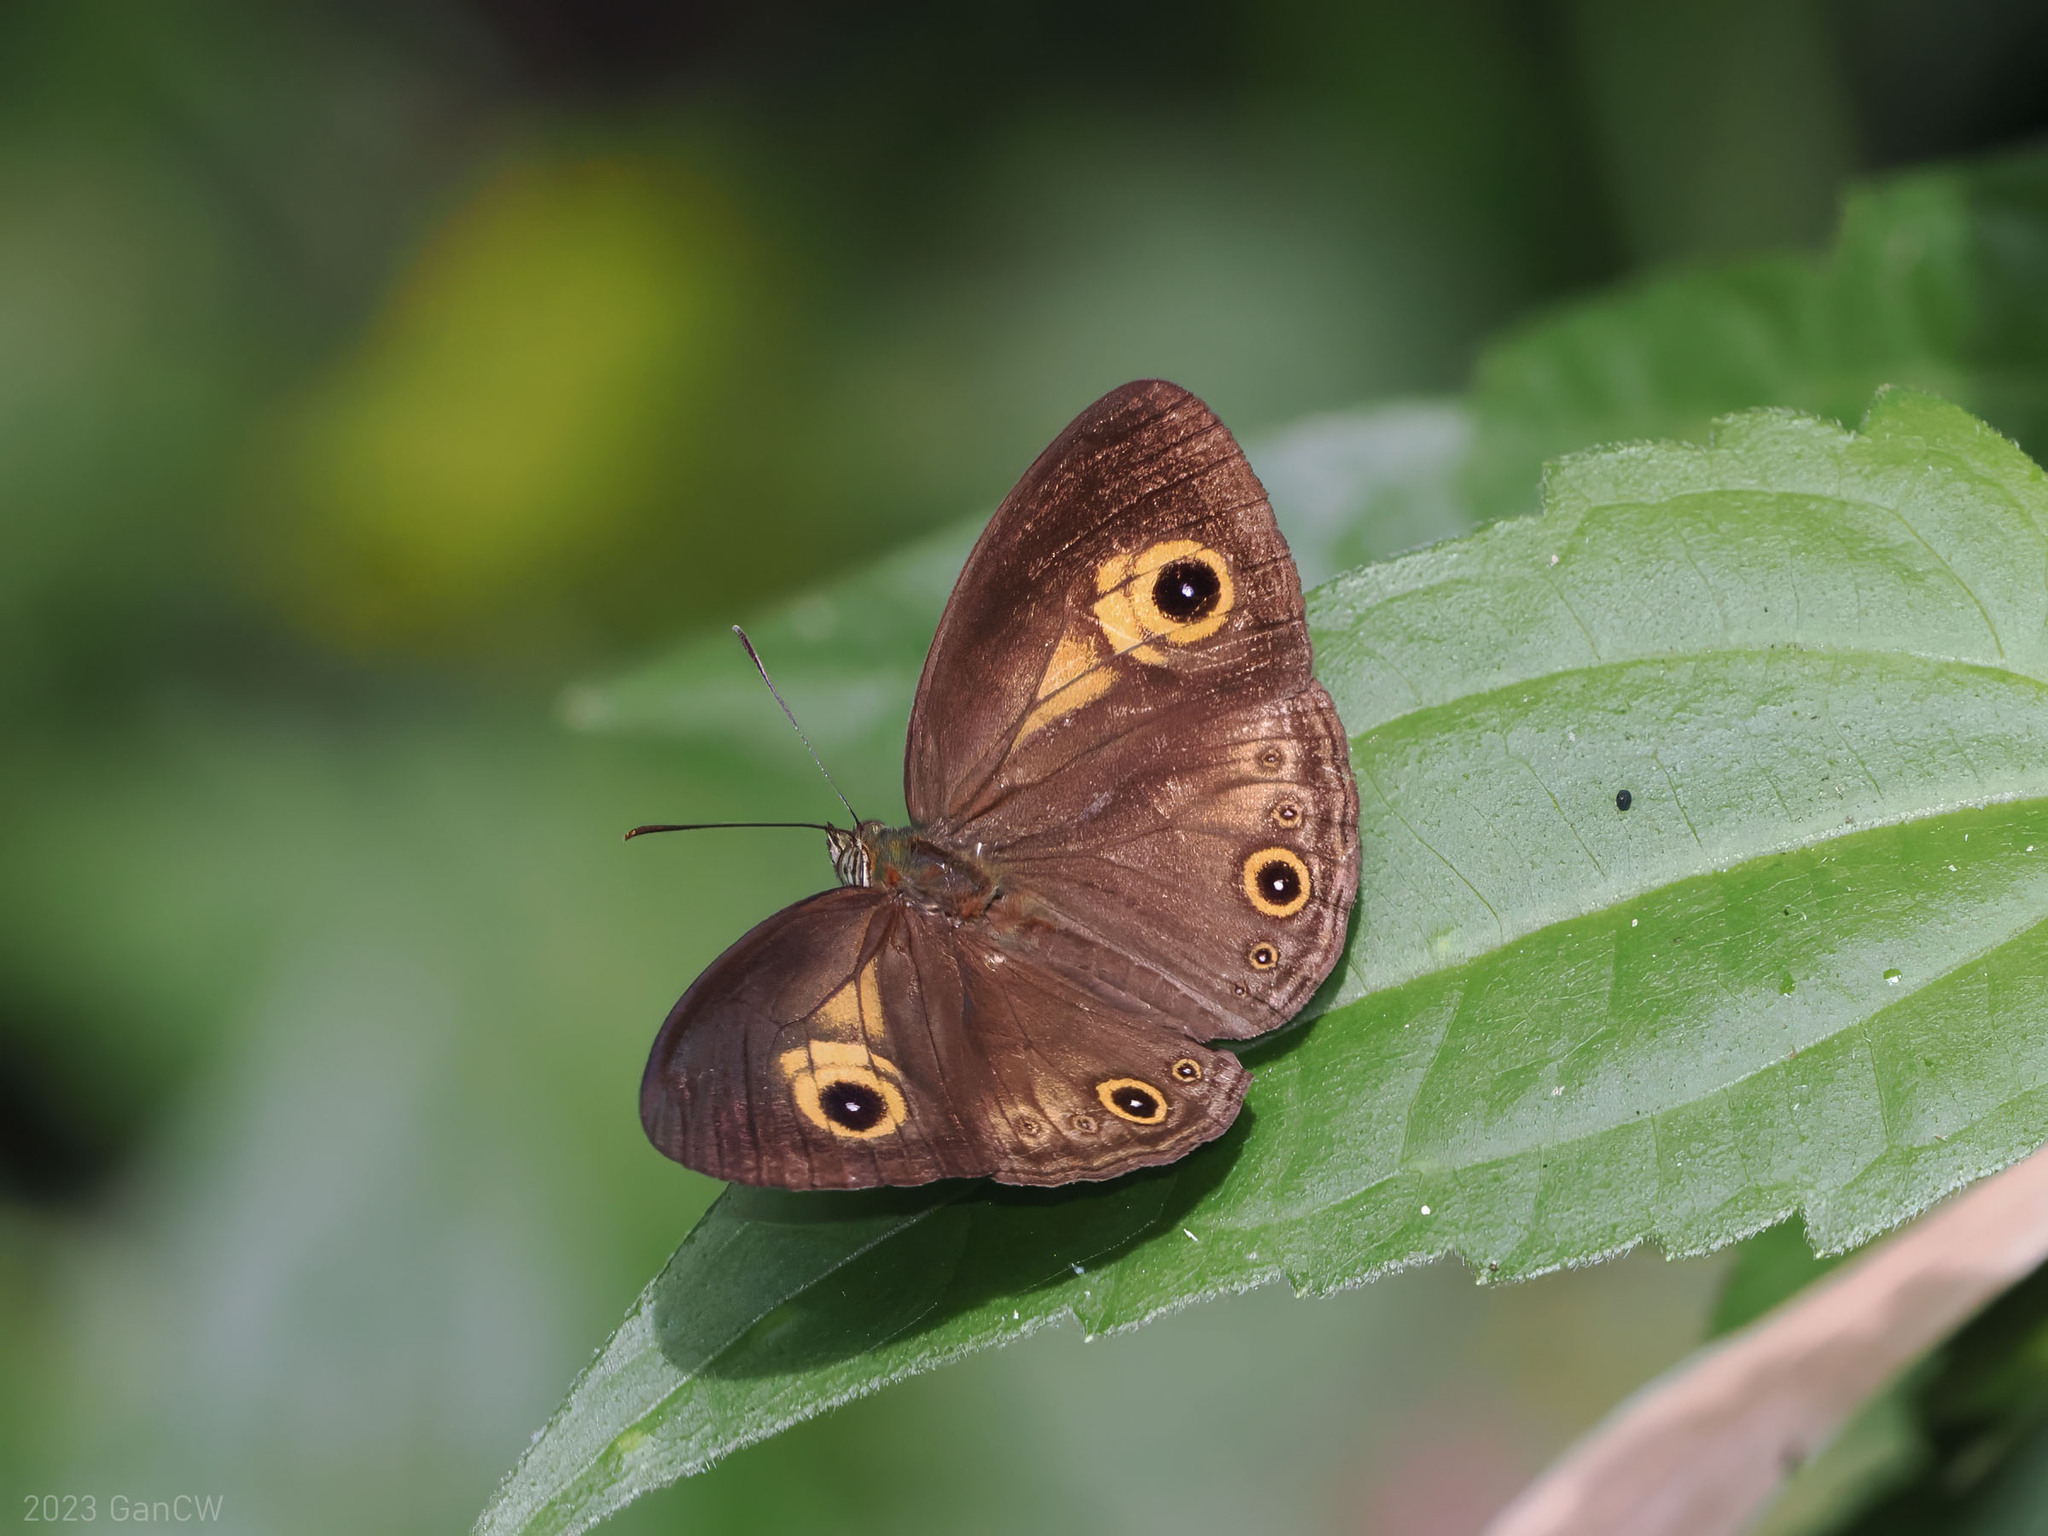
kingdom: Animalia
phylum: Arthropoda
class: Insecta
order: Lepidoptera
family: Nymphalidae
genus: Mycalesis
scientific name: Mycalesis ita
